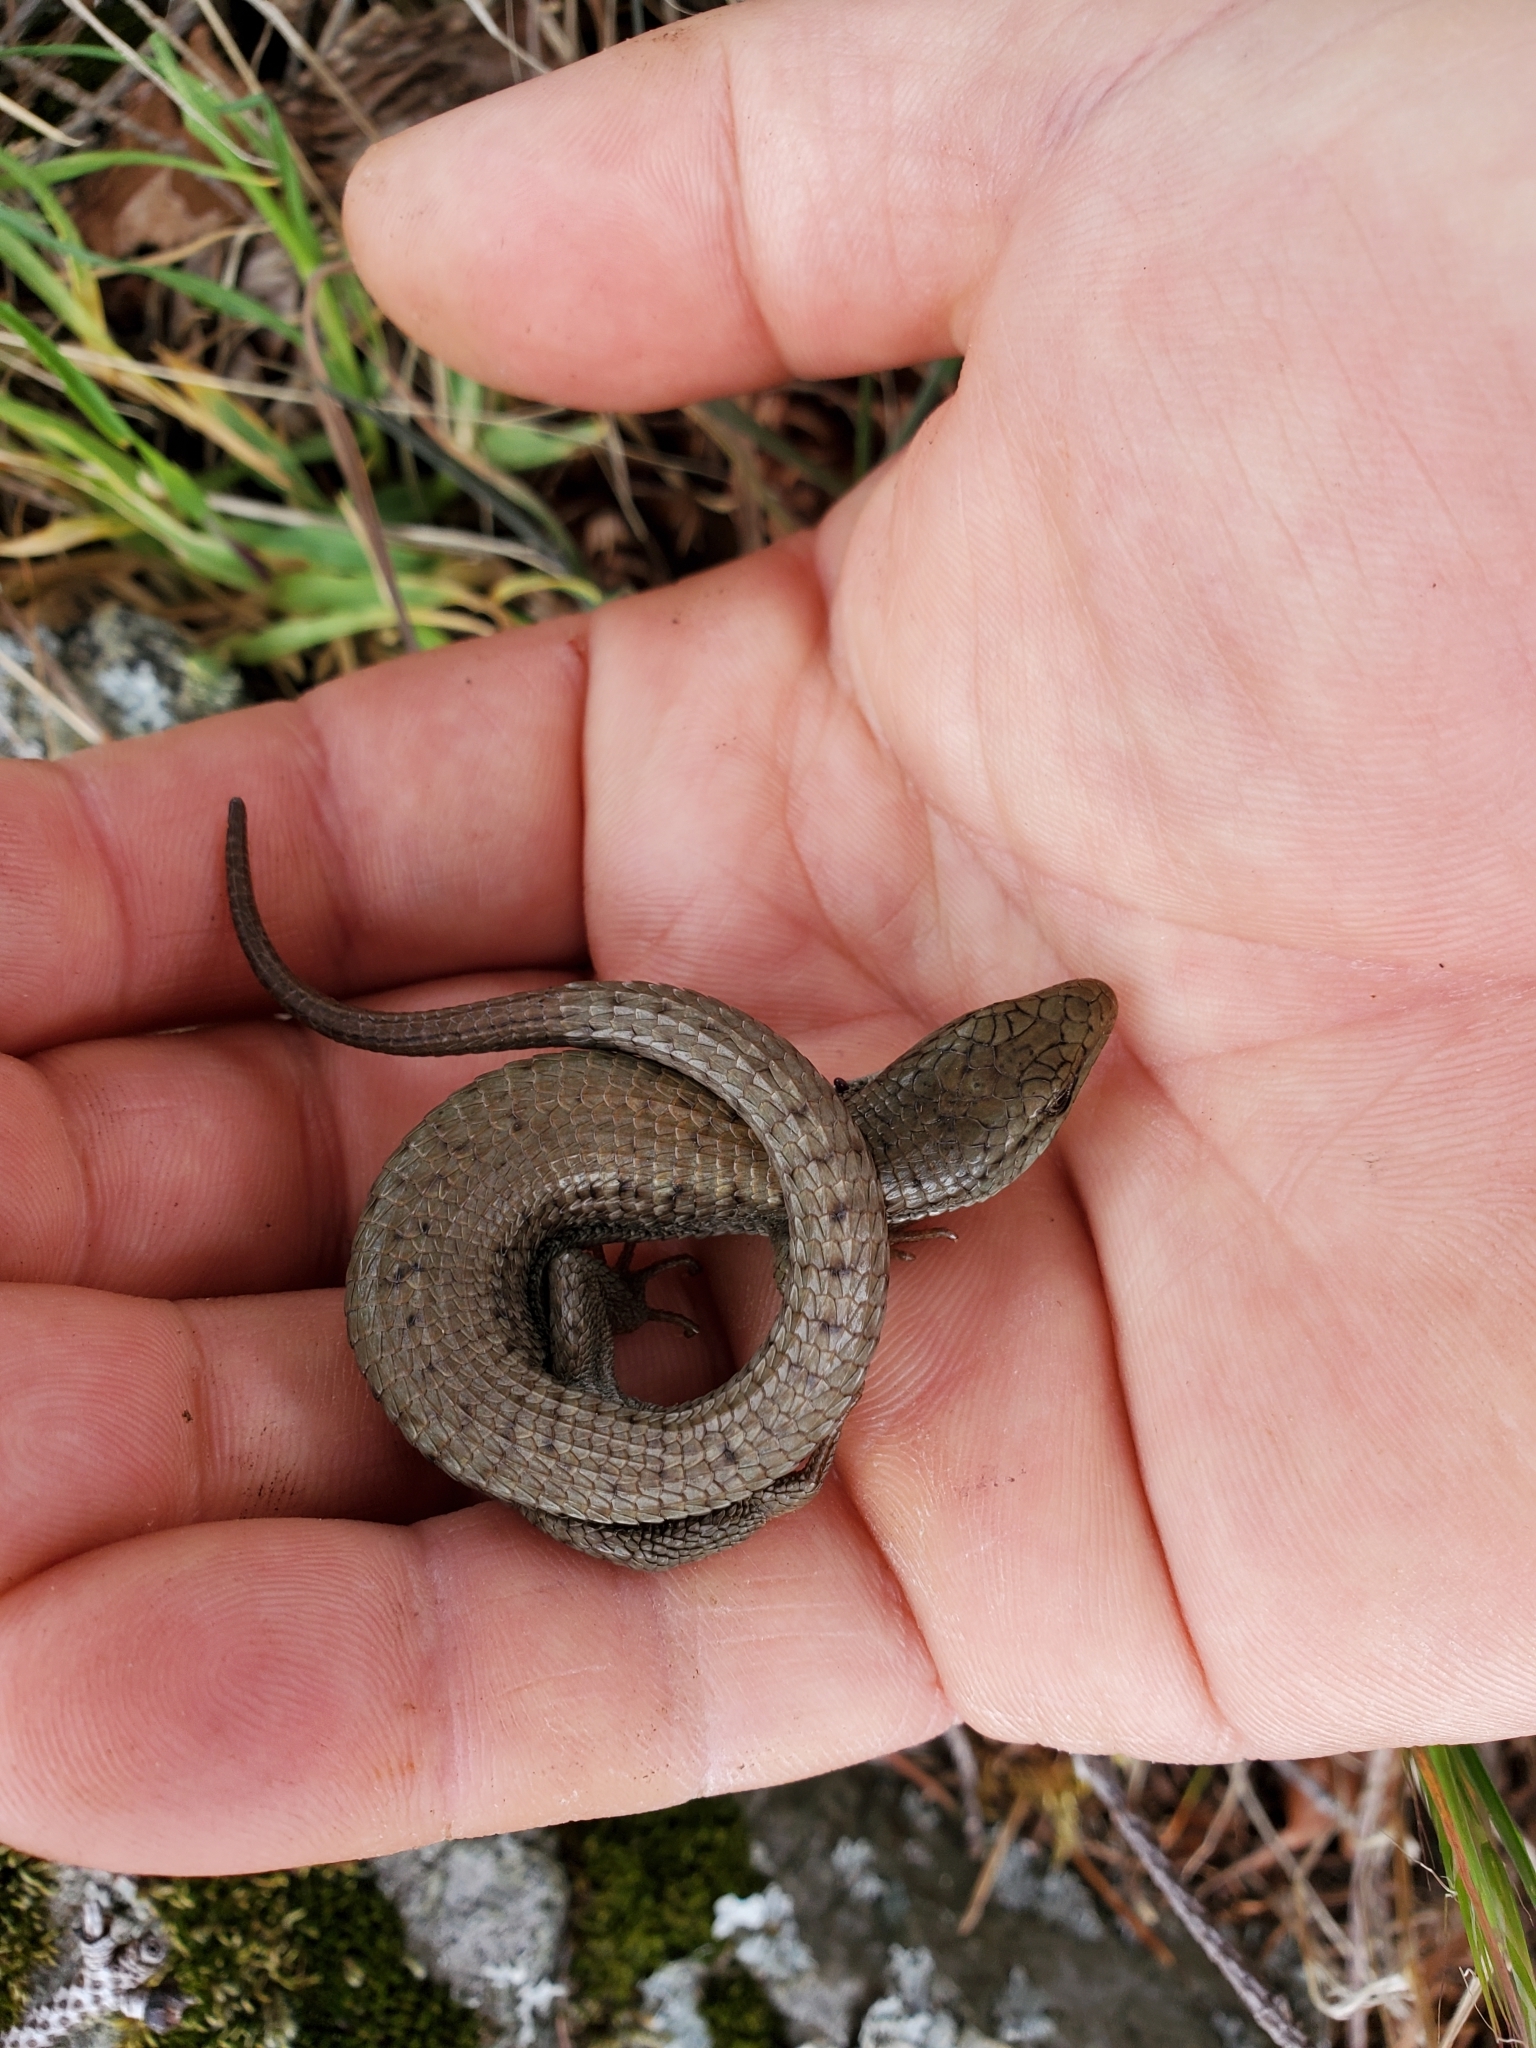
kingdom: Animalia
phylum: Chordata
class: Squamata
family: Anguidae
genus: Elgaria
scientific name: Elgaria coerulea
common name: Northern alligator lizard
